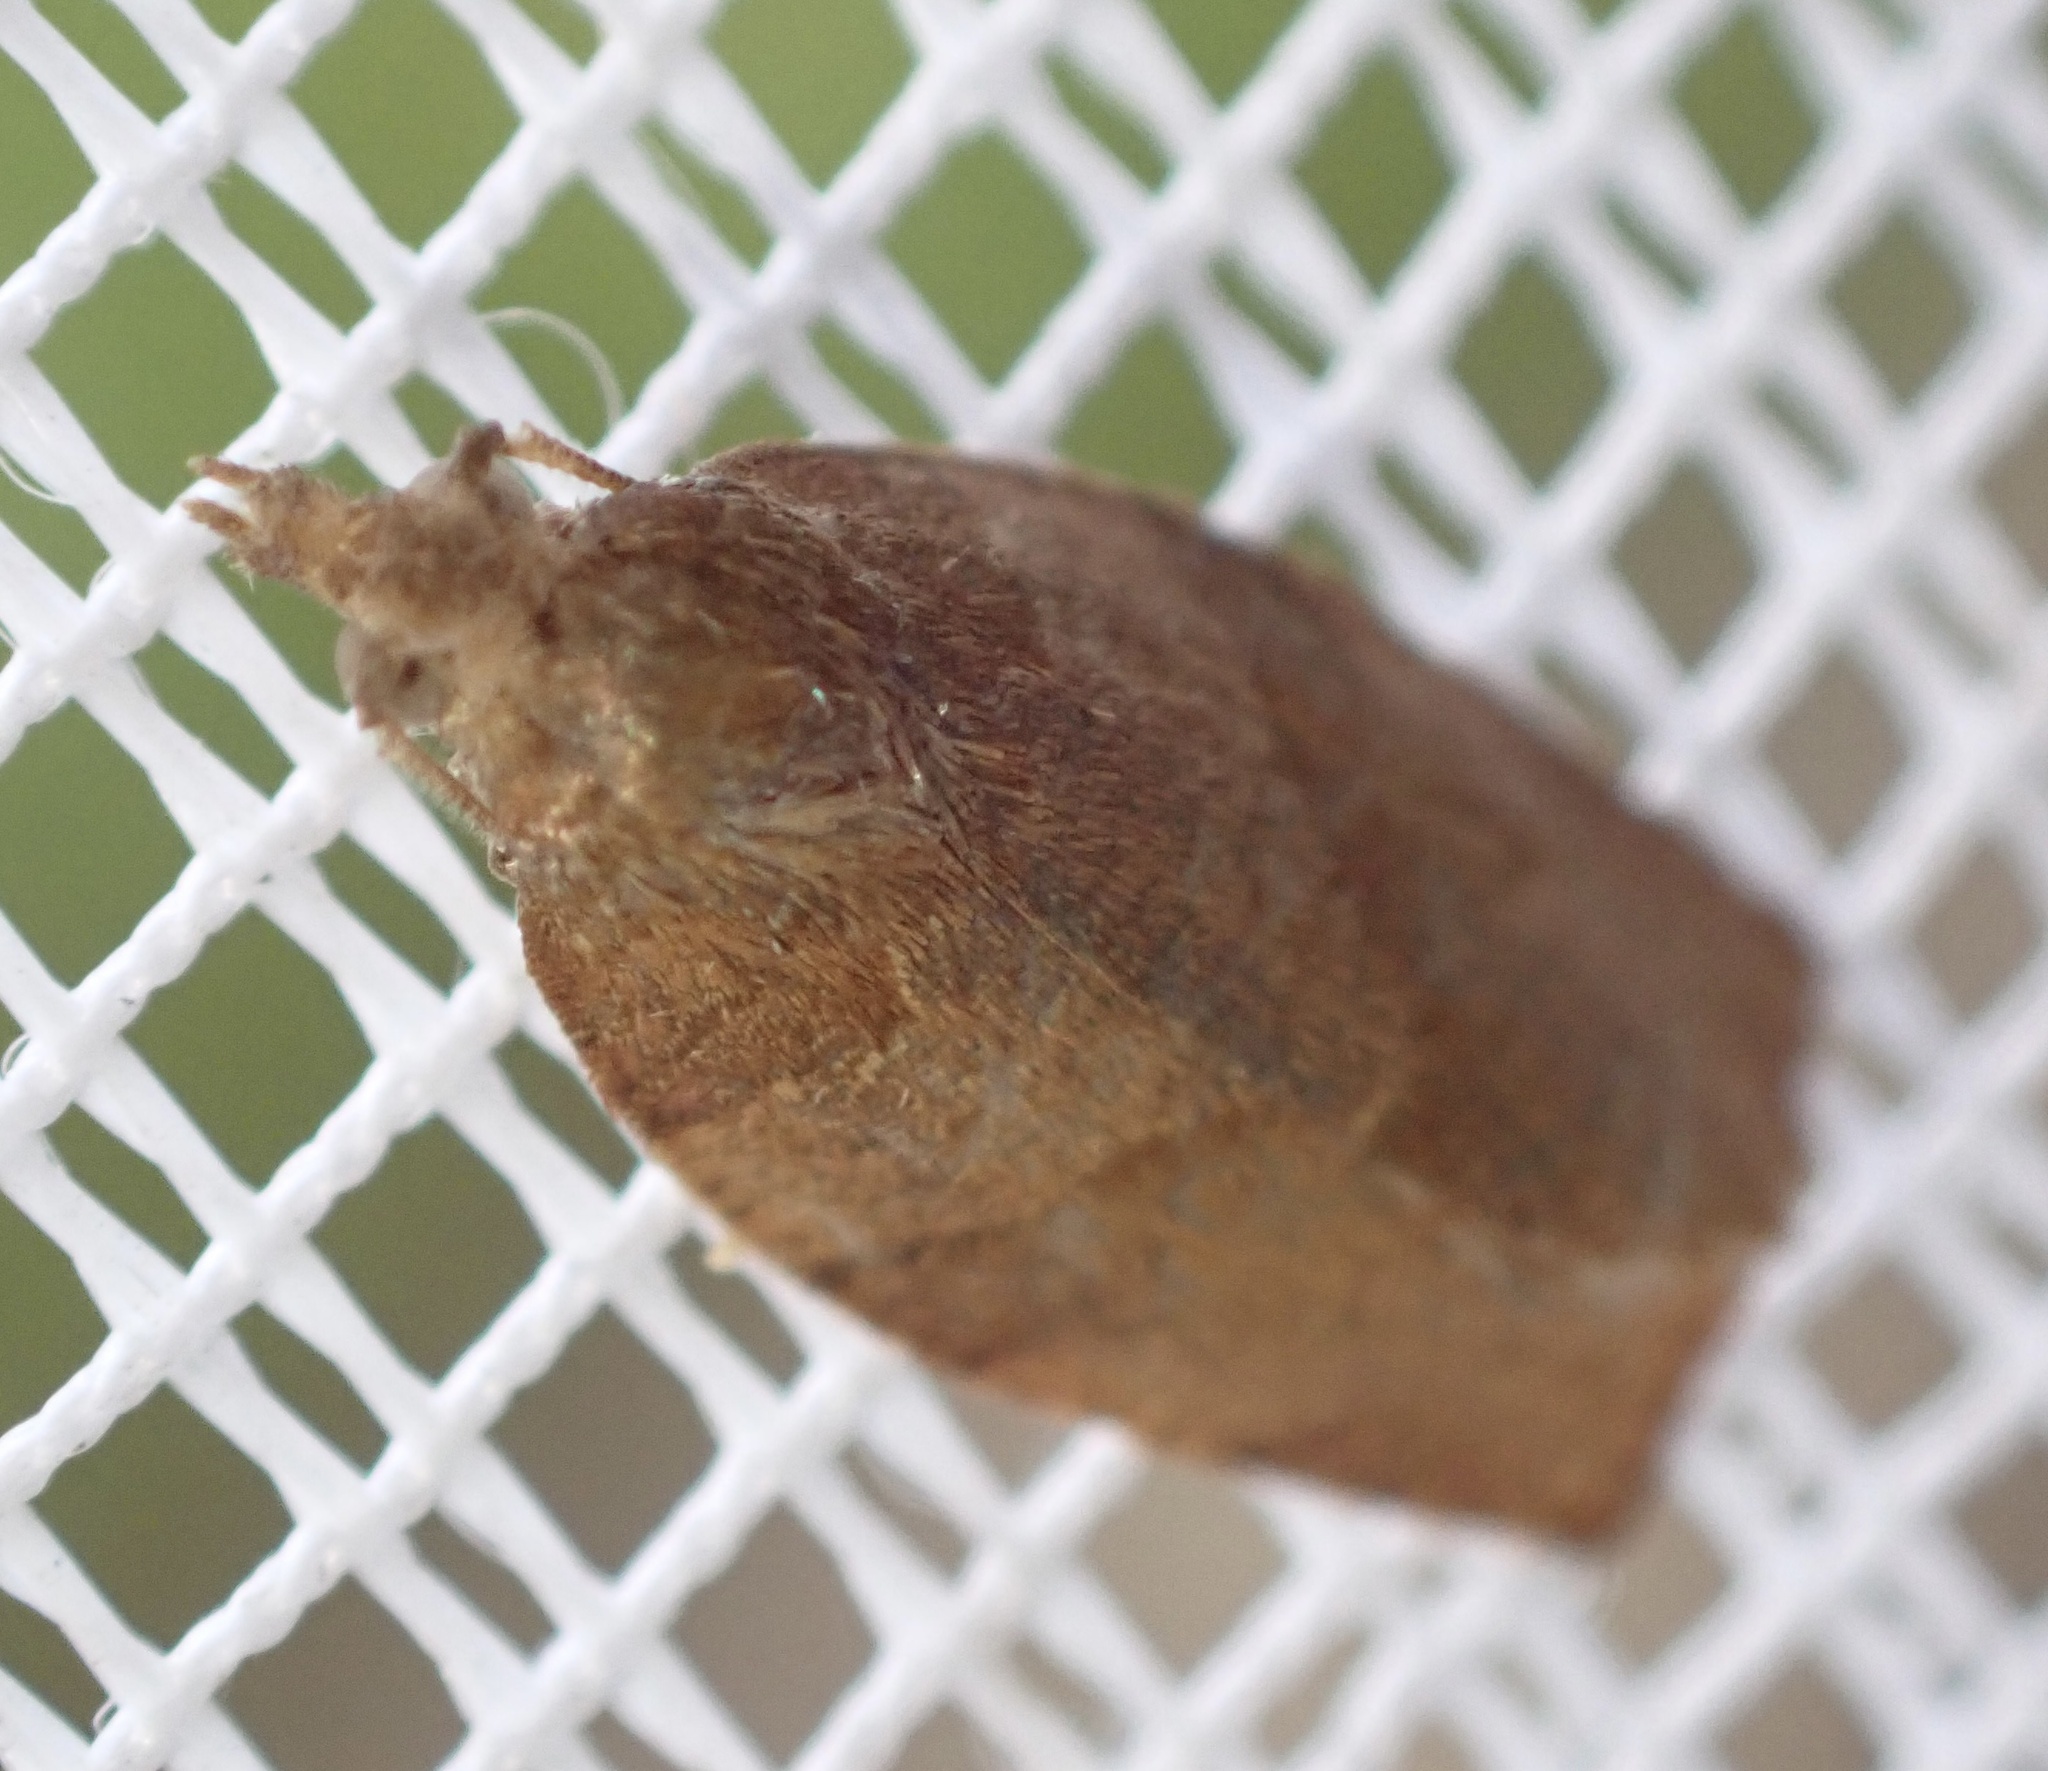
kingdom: Animalia
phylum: Arthropoda
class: Insecta
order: Lepidoptera
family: Tortricidae
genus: Pandemis
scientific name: Pandemis heparana
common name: Dark fruit-tree tortrix
